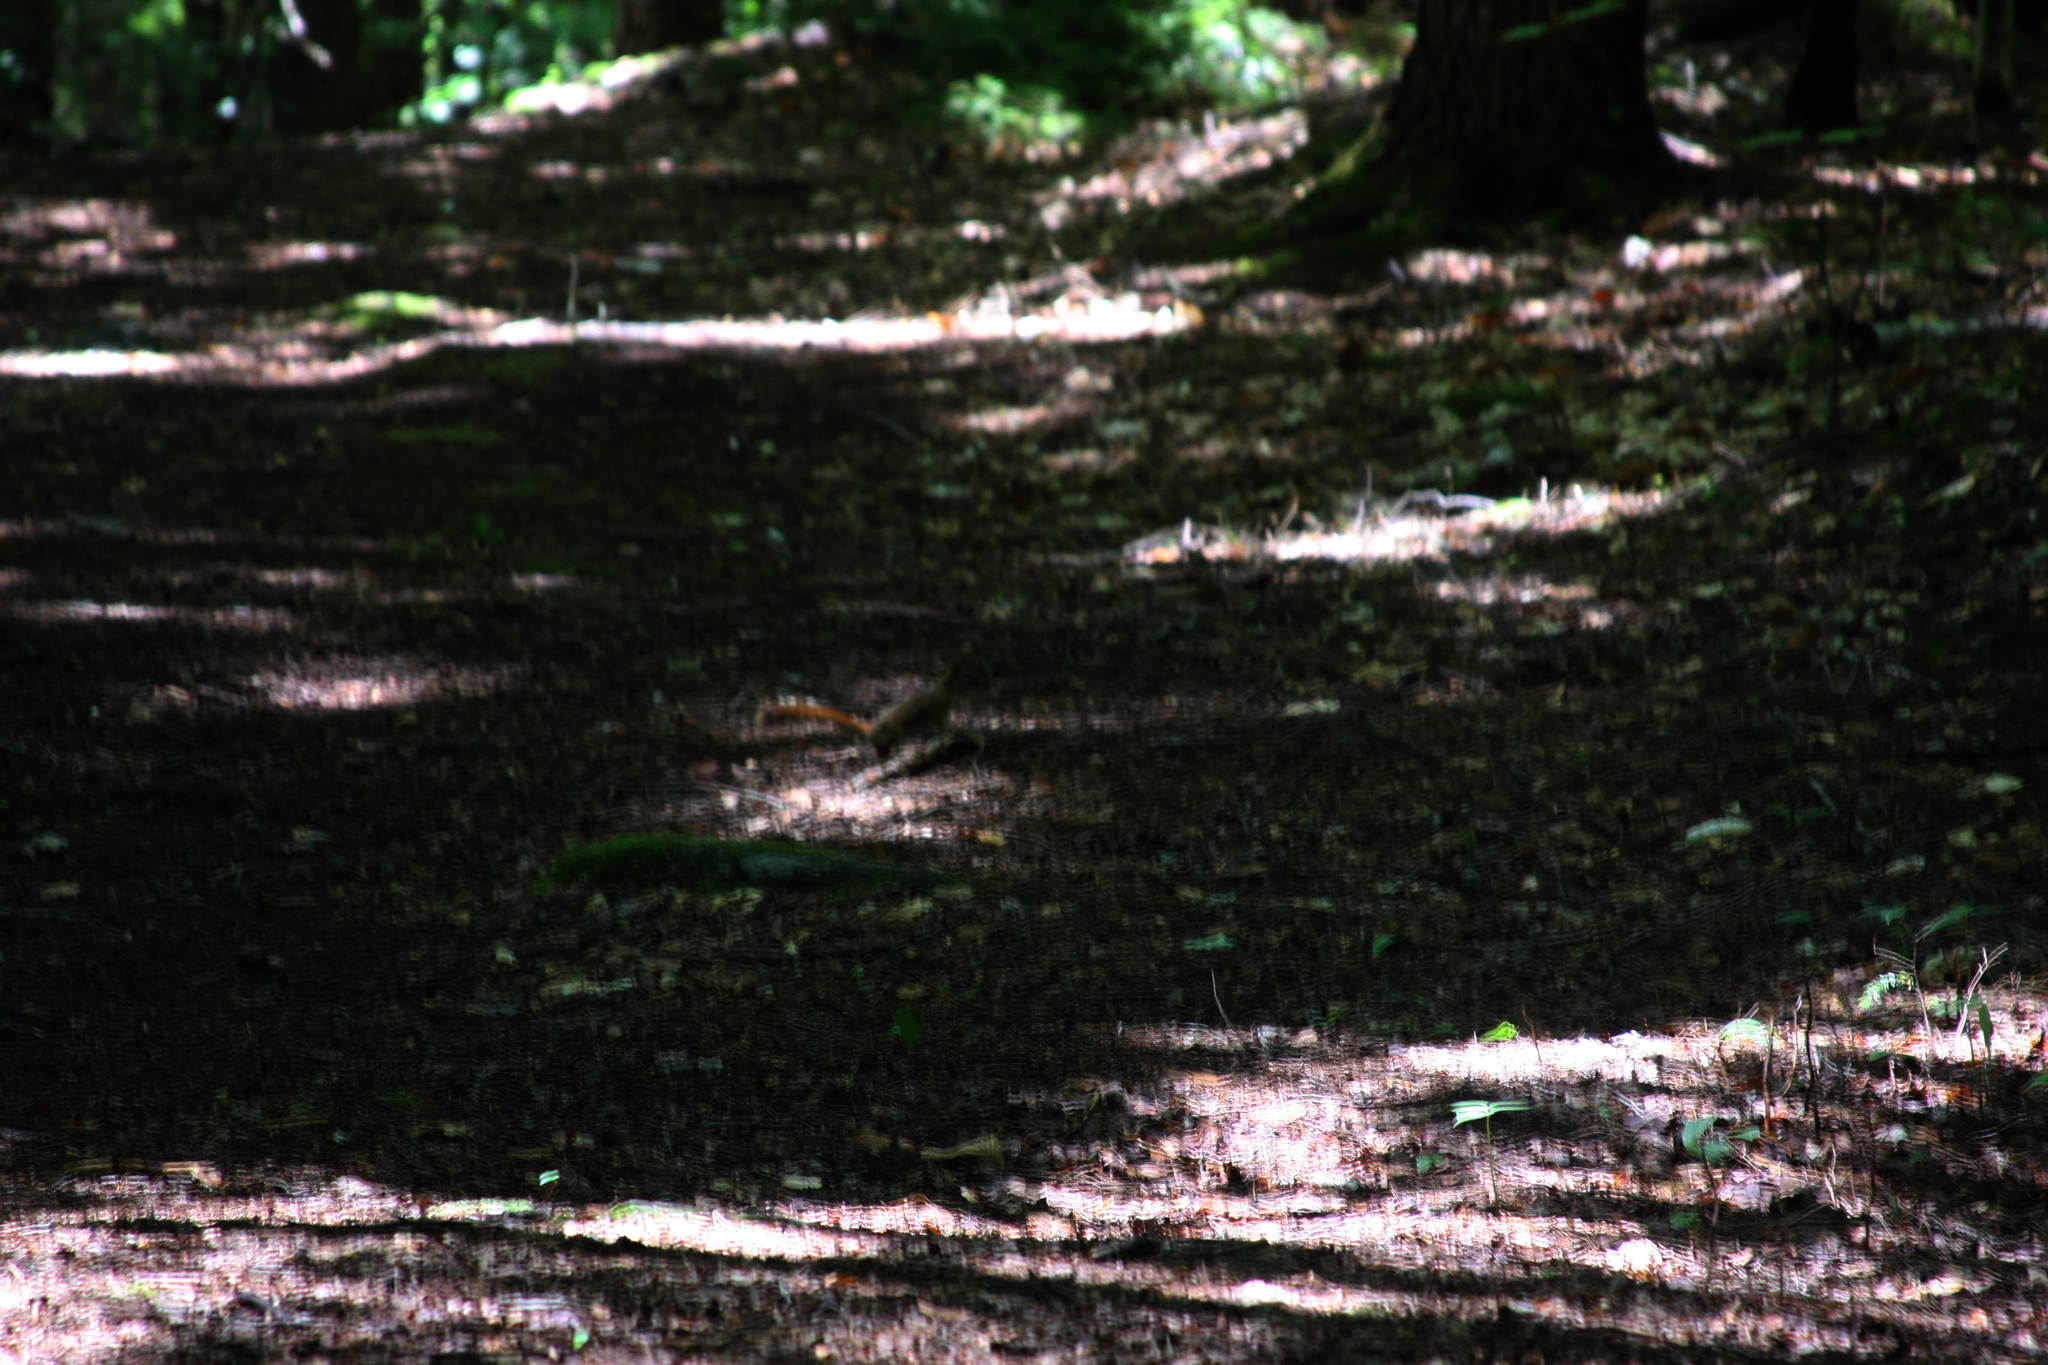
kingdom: Animalia
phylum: Chordata
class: Mammalia
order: Rodentia
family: Sciuridae
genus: Tamiasciurus
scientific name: Tamiasciurus hudsonicus
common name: Red squirrel
